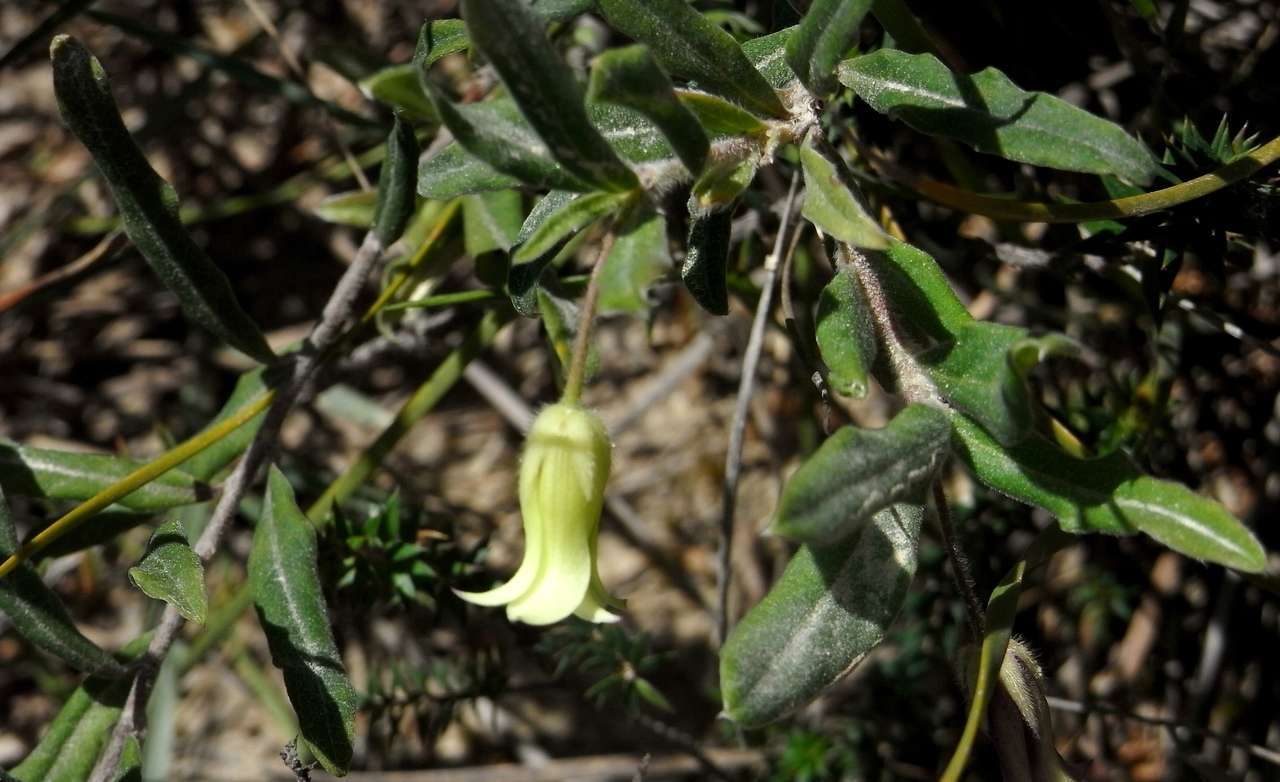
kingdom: Plantae
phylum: Tracheophyta
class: Magnoliopsida
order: Apiales
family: Pittosporaceae
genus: Billardiera
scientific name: Billardiera scandens
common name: Apple-berry
